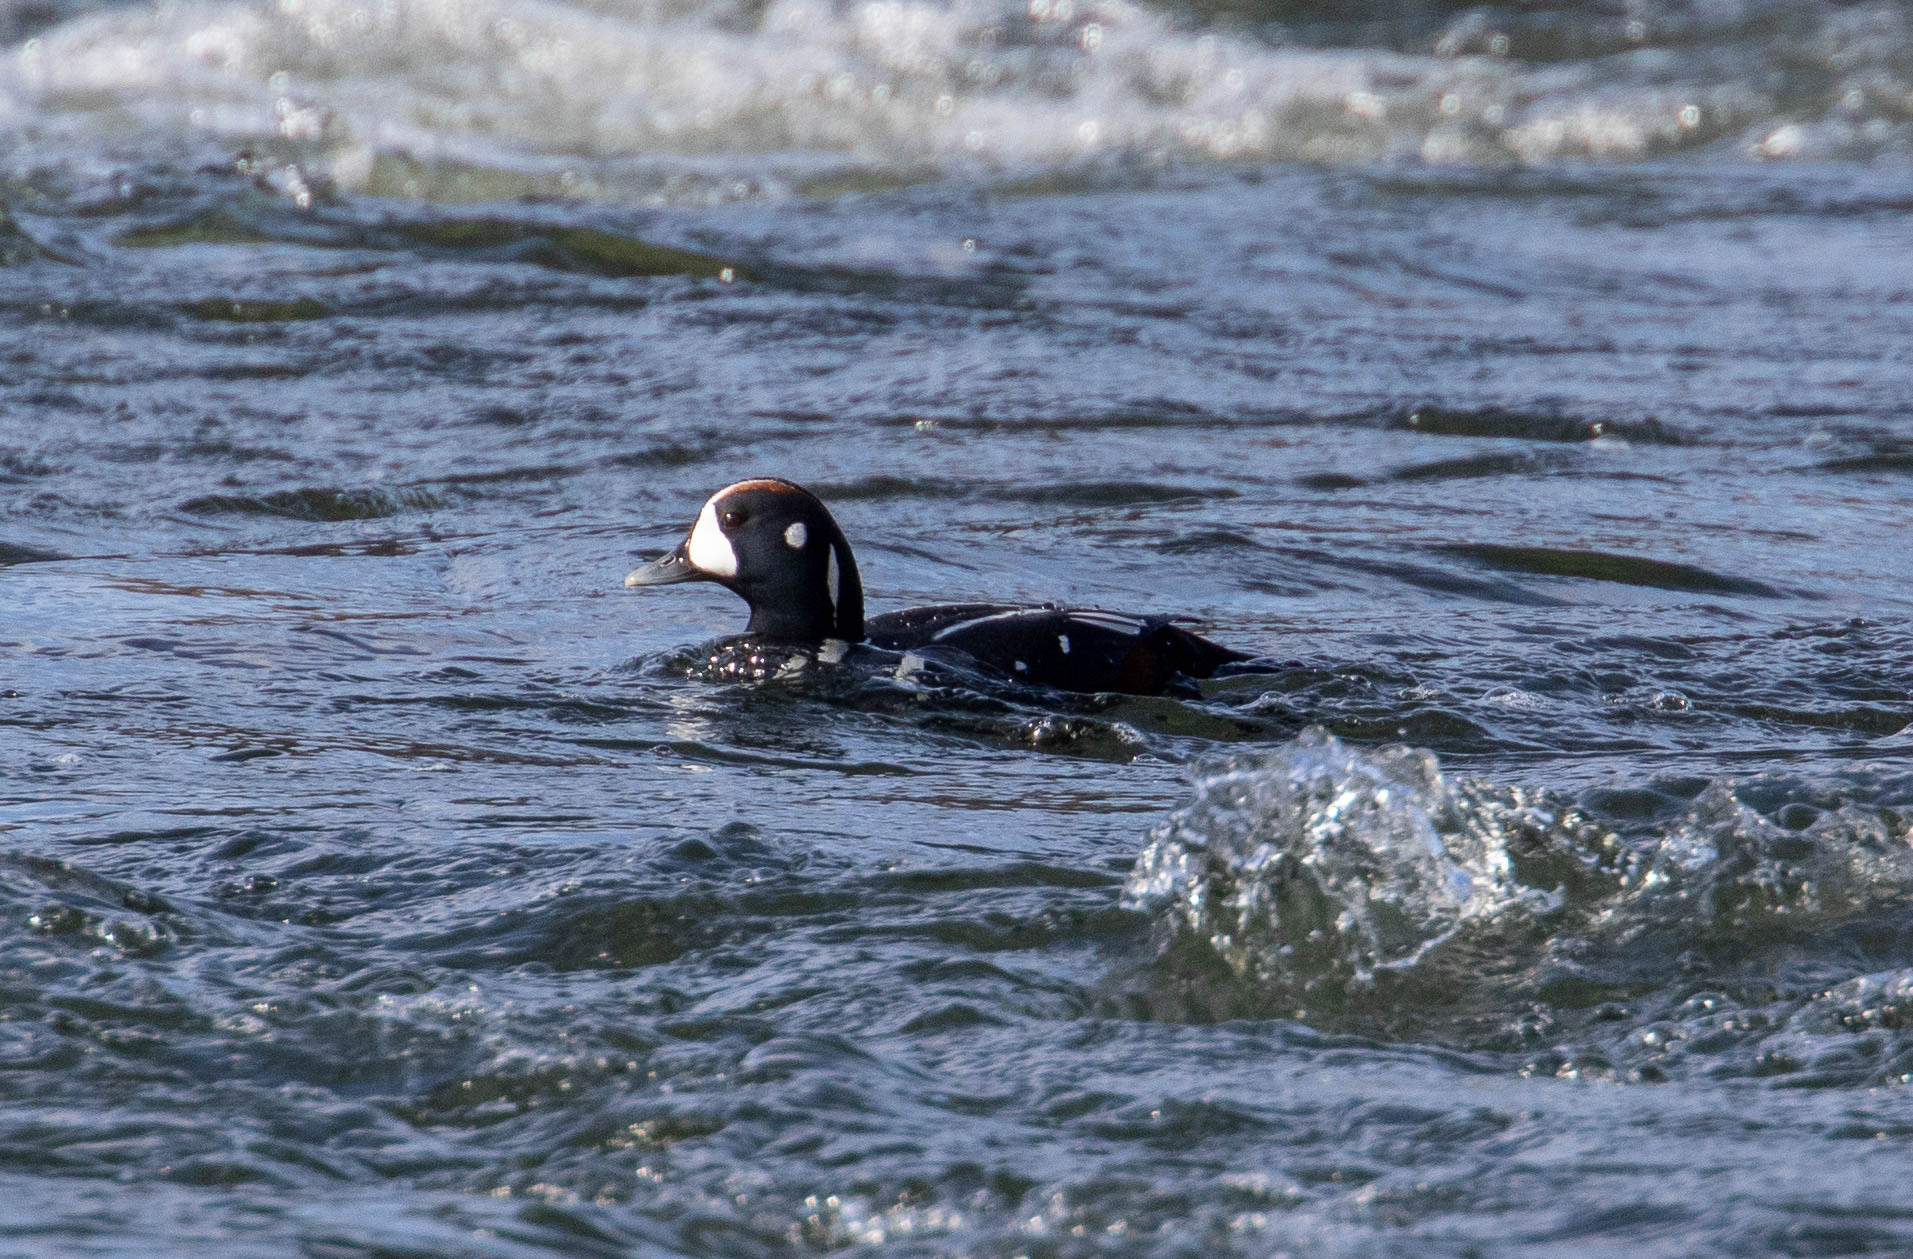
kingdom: Animalia
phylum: Chordata
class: Aves
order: Anseriformes
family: Anatidae
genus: Histrionicus
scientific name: Histrionicus histrionicus
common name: Harlequin duck
